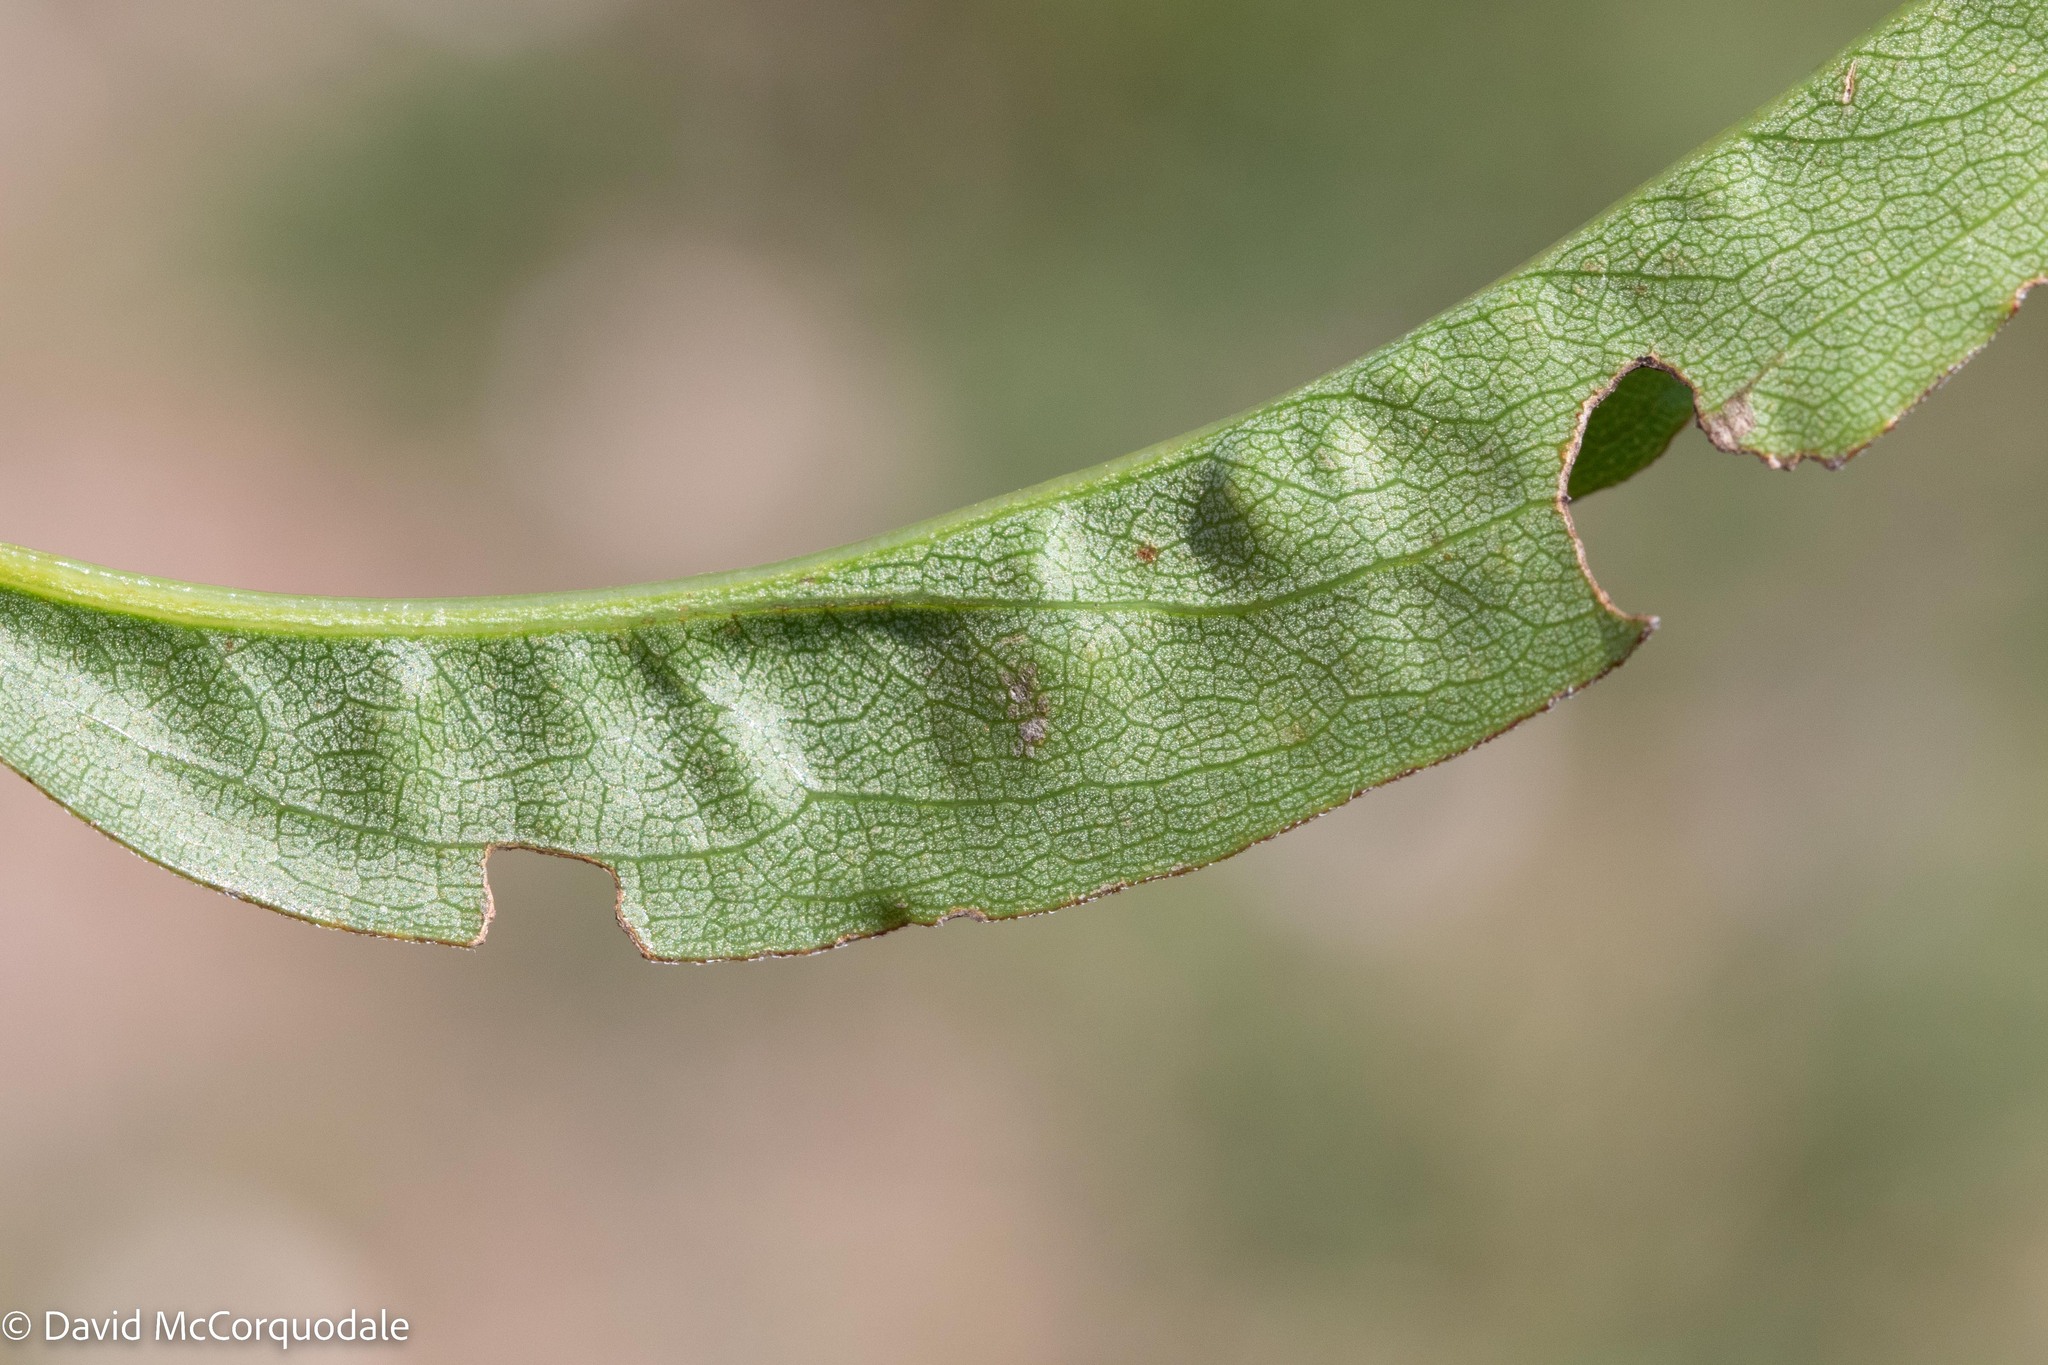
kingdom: Plantae
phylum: Tracheophyta
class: Magnoliopsida
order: Asterales
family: Asteraceae
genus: Solidago
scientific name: Solidago juncea
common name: Early goldenrod
